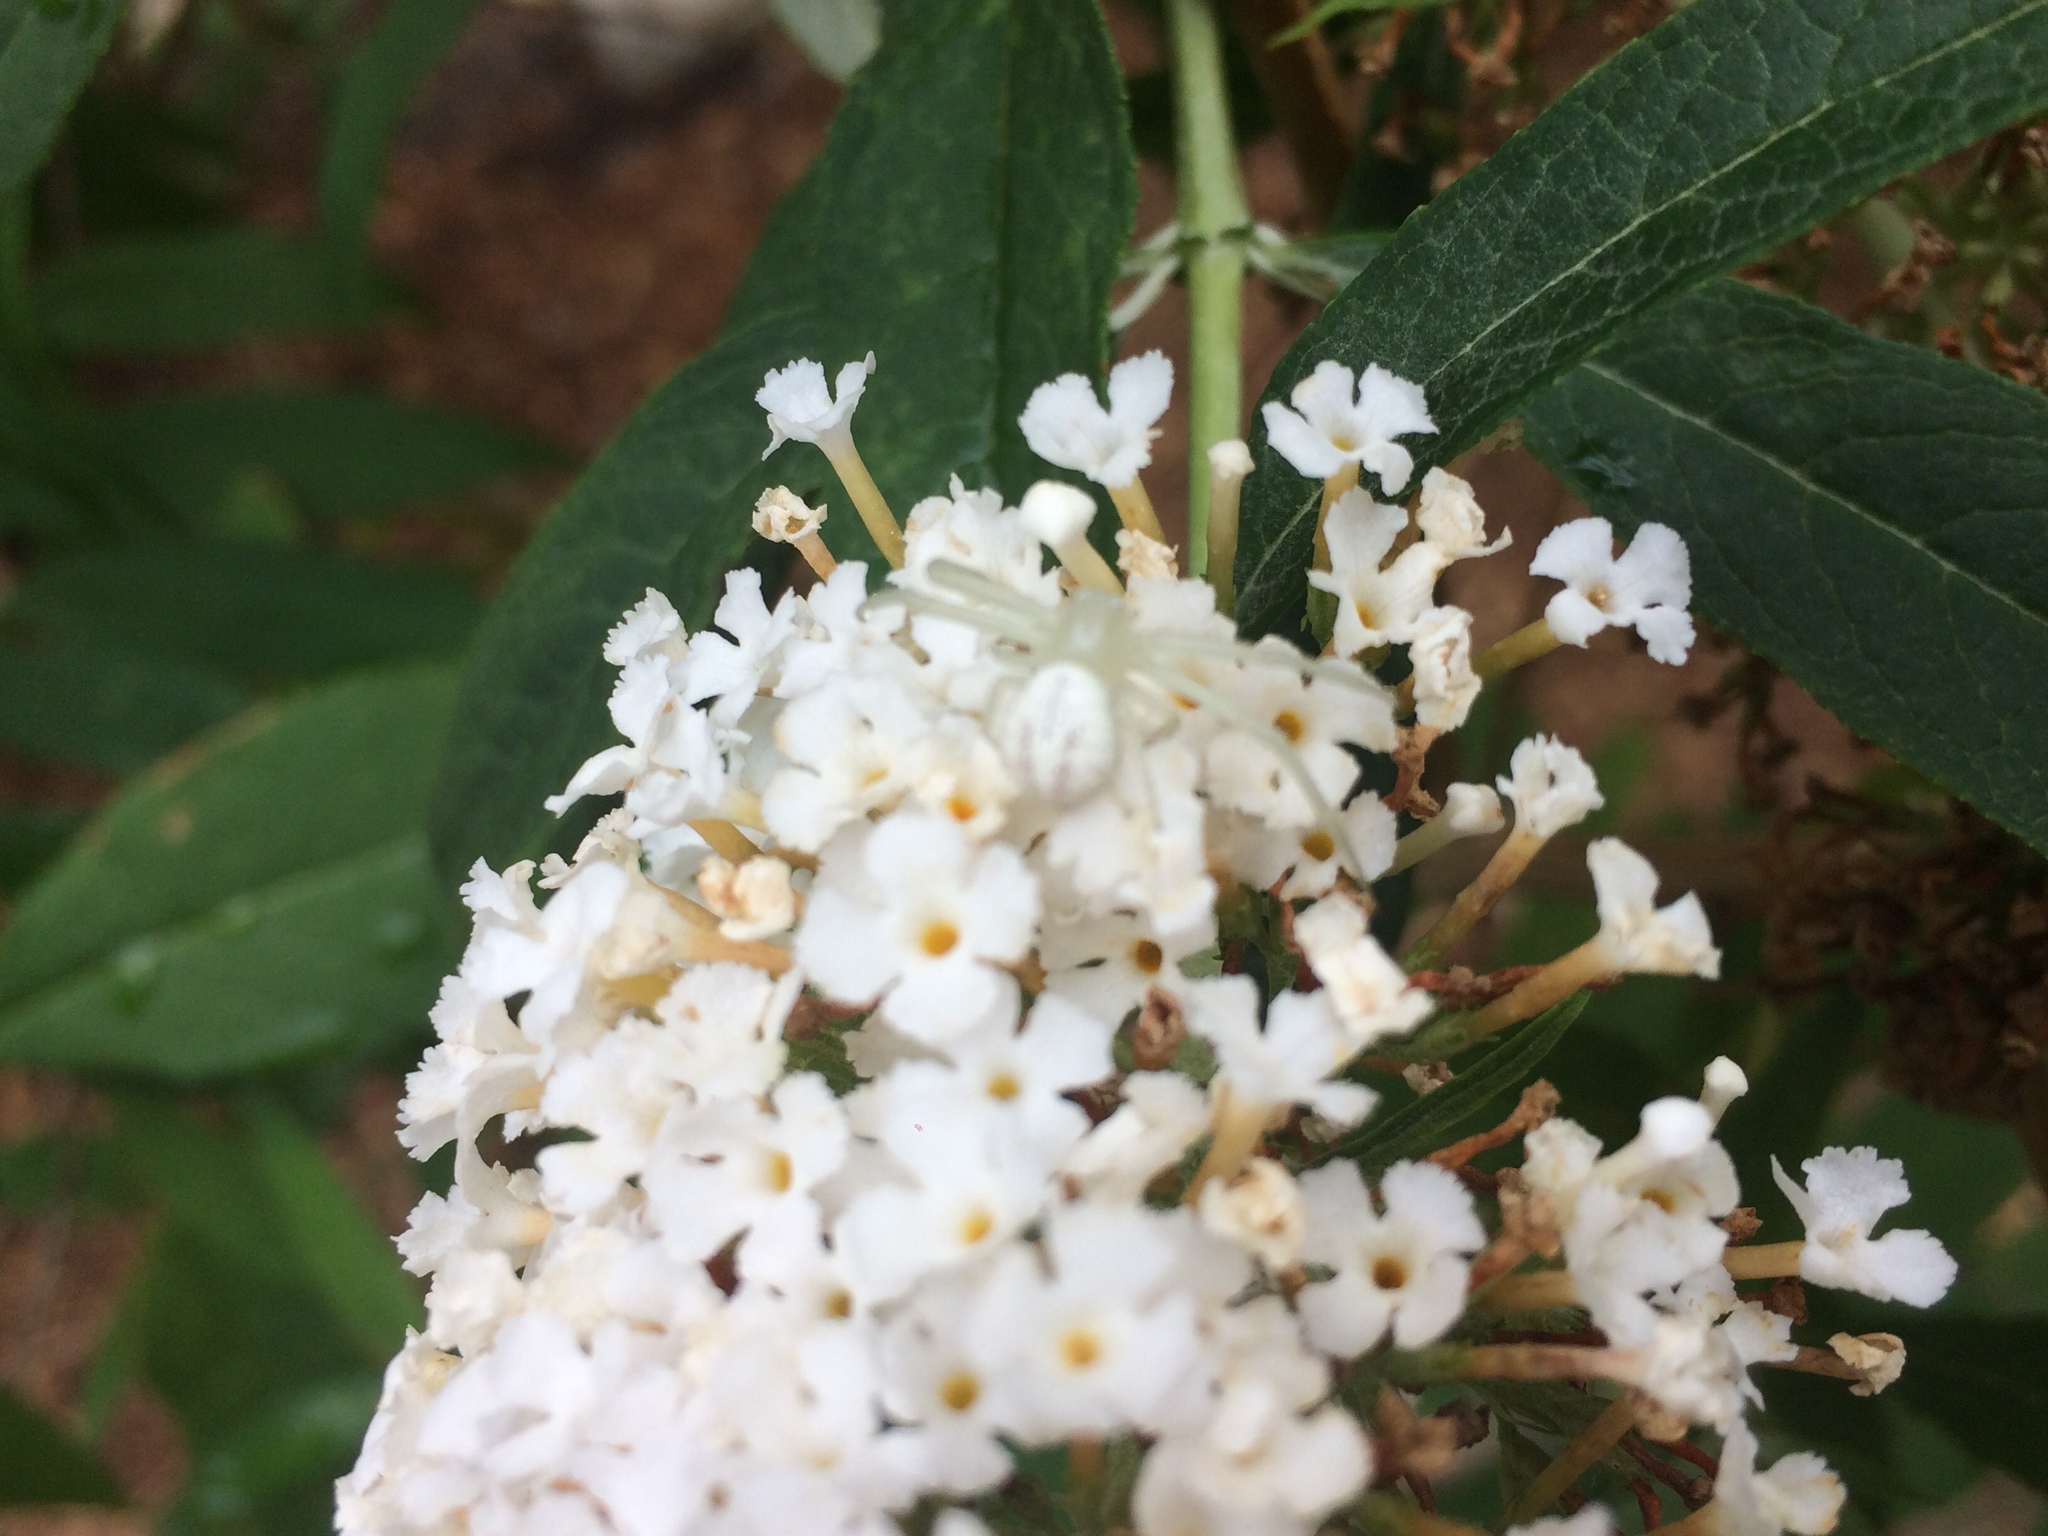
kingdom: Animalia
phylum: Arthropoda
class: Arachnida
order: Araneae
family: Thomisidae
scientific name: Thomisidae
